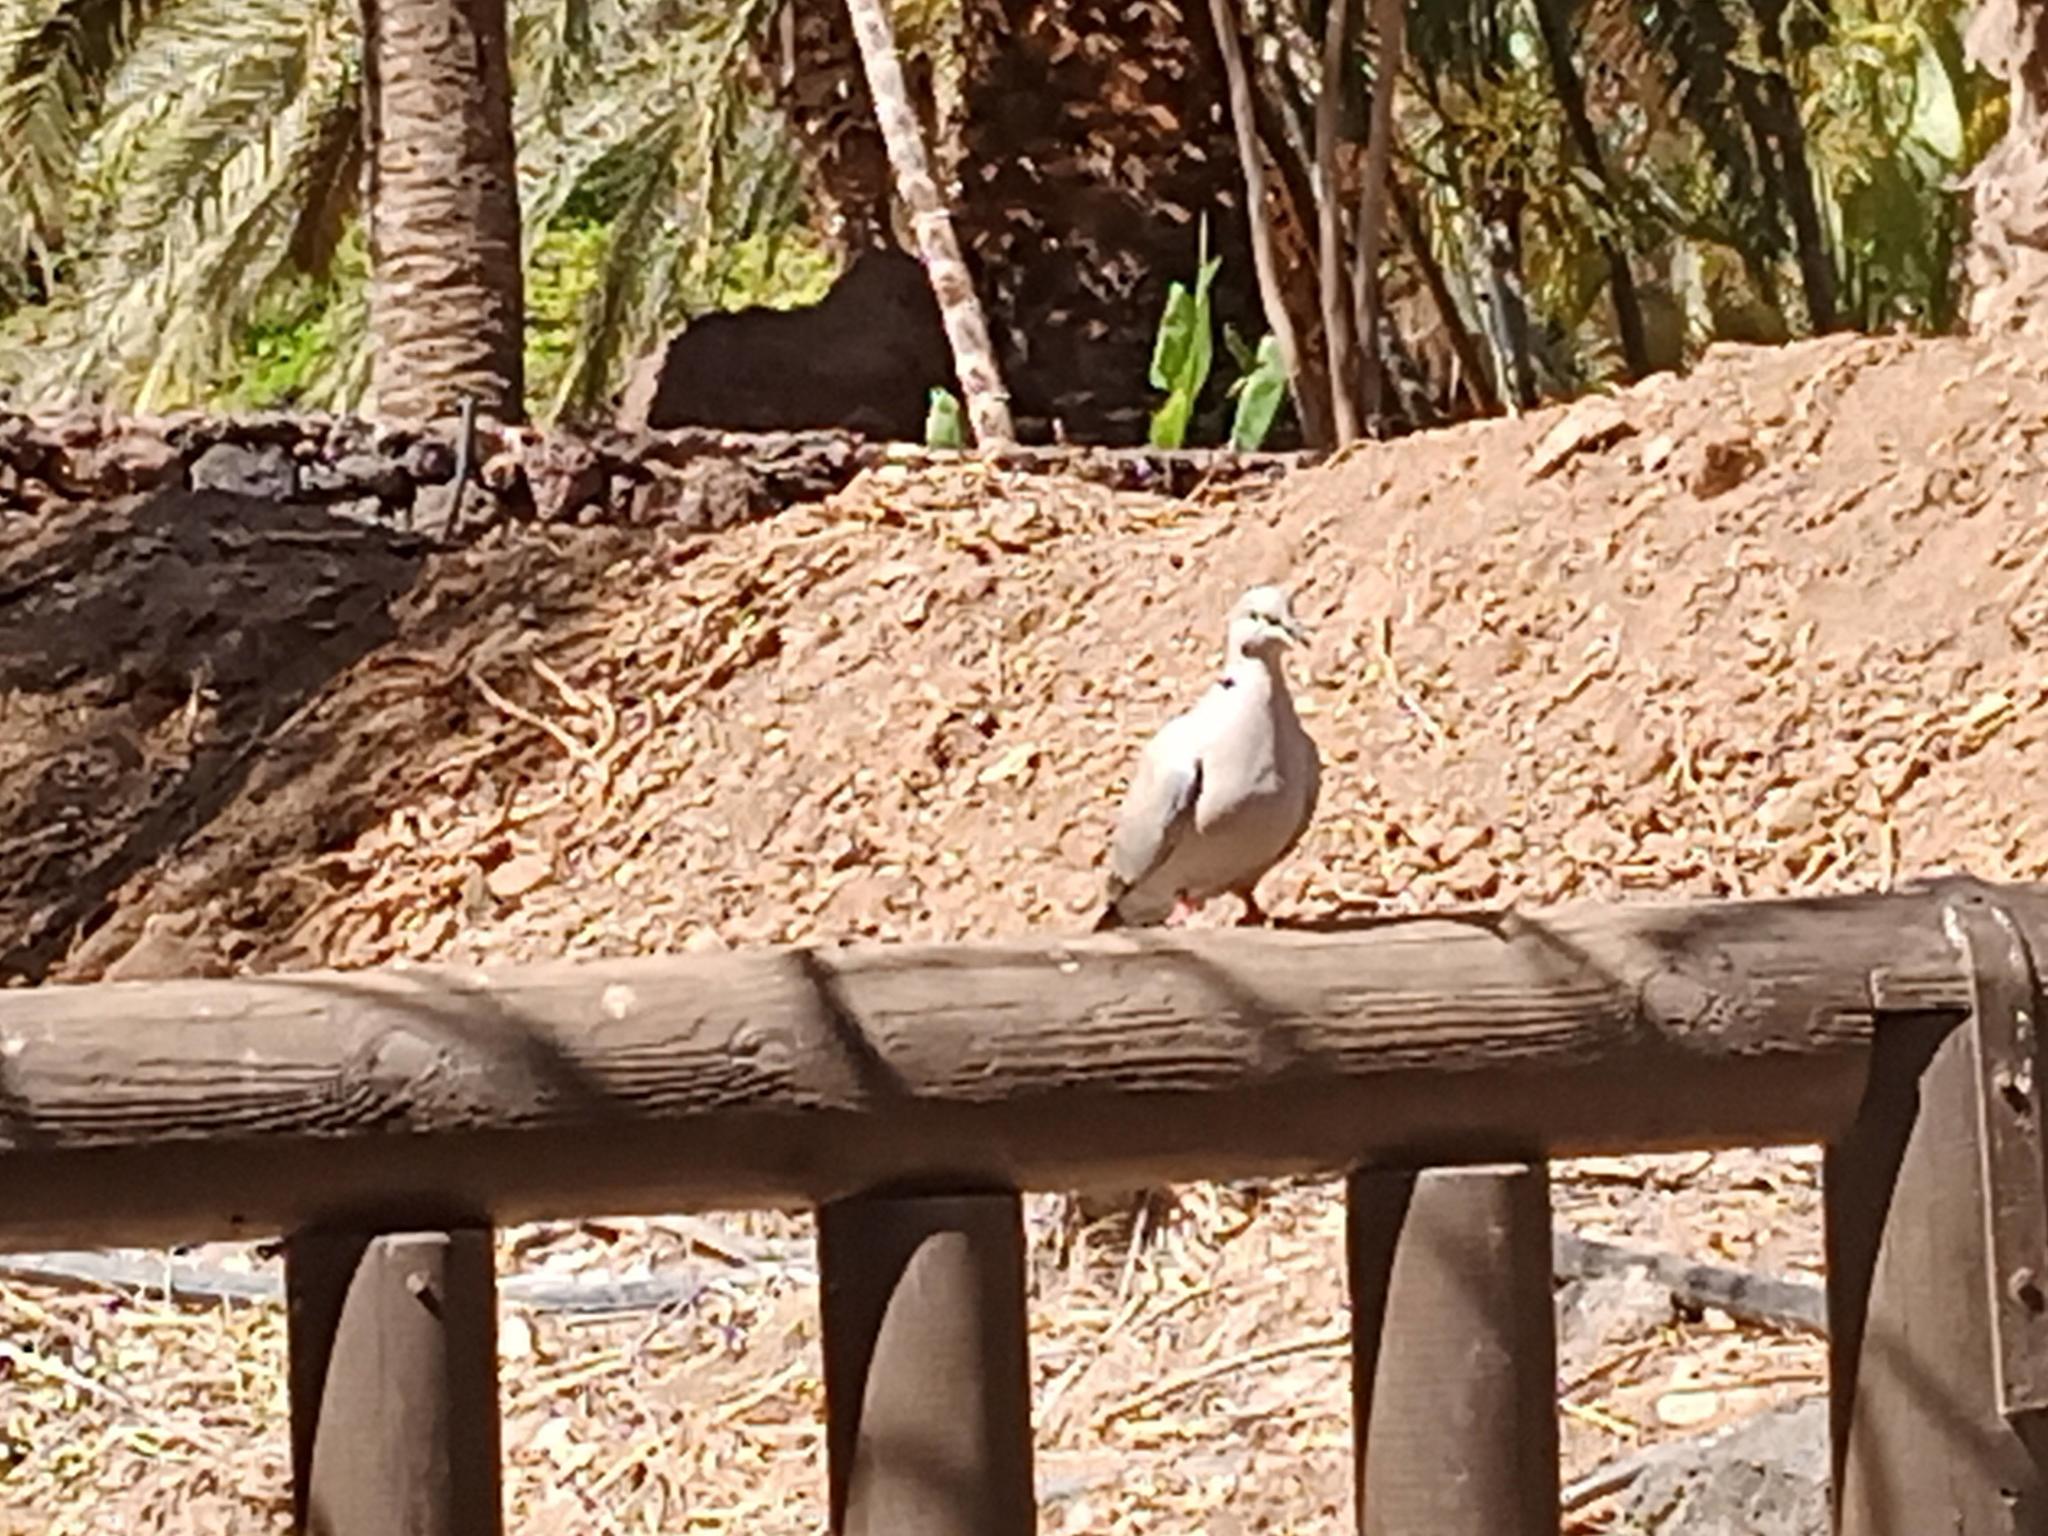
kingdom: Animalia
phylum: Chordata
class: Aves
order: Columbiformes
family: Columbidae
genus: Streptopelia
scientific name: Streptopelia decaocto
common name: Eurasian collared dove
